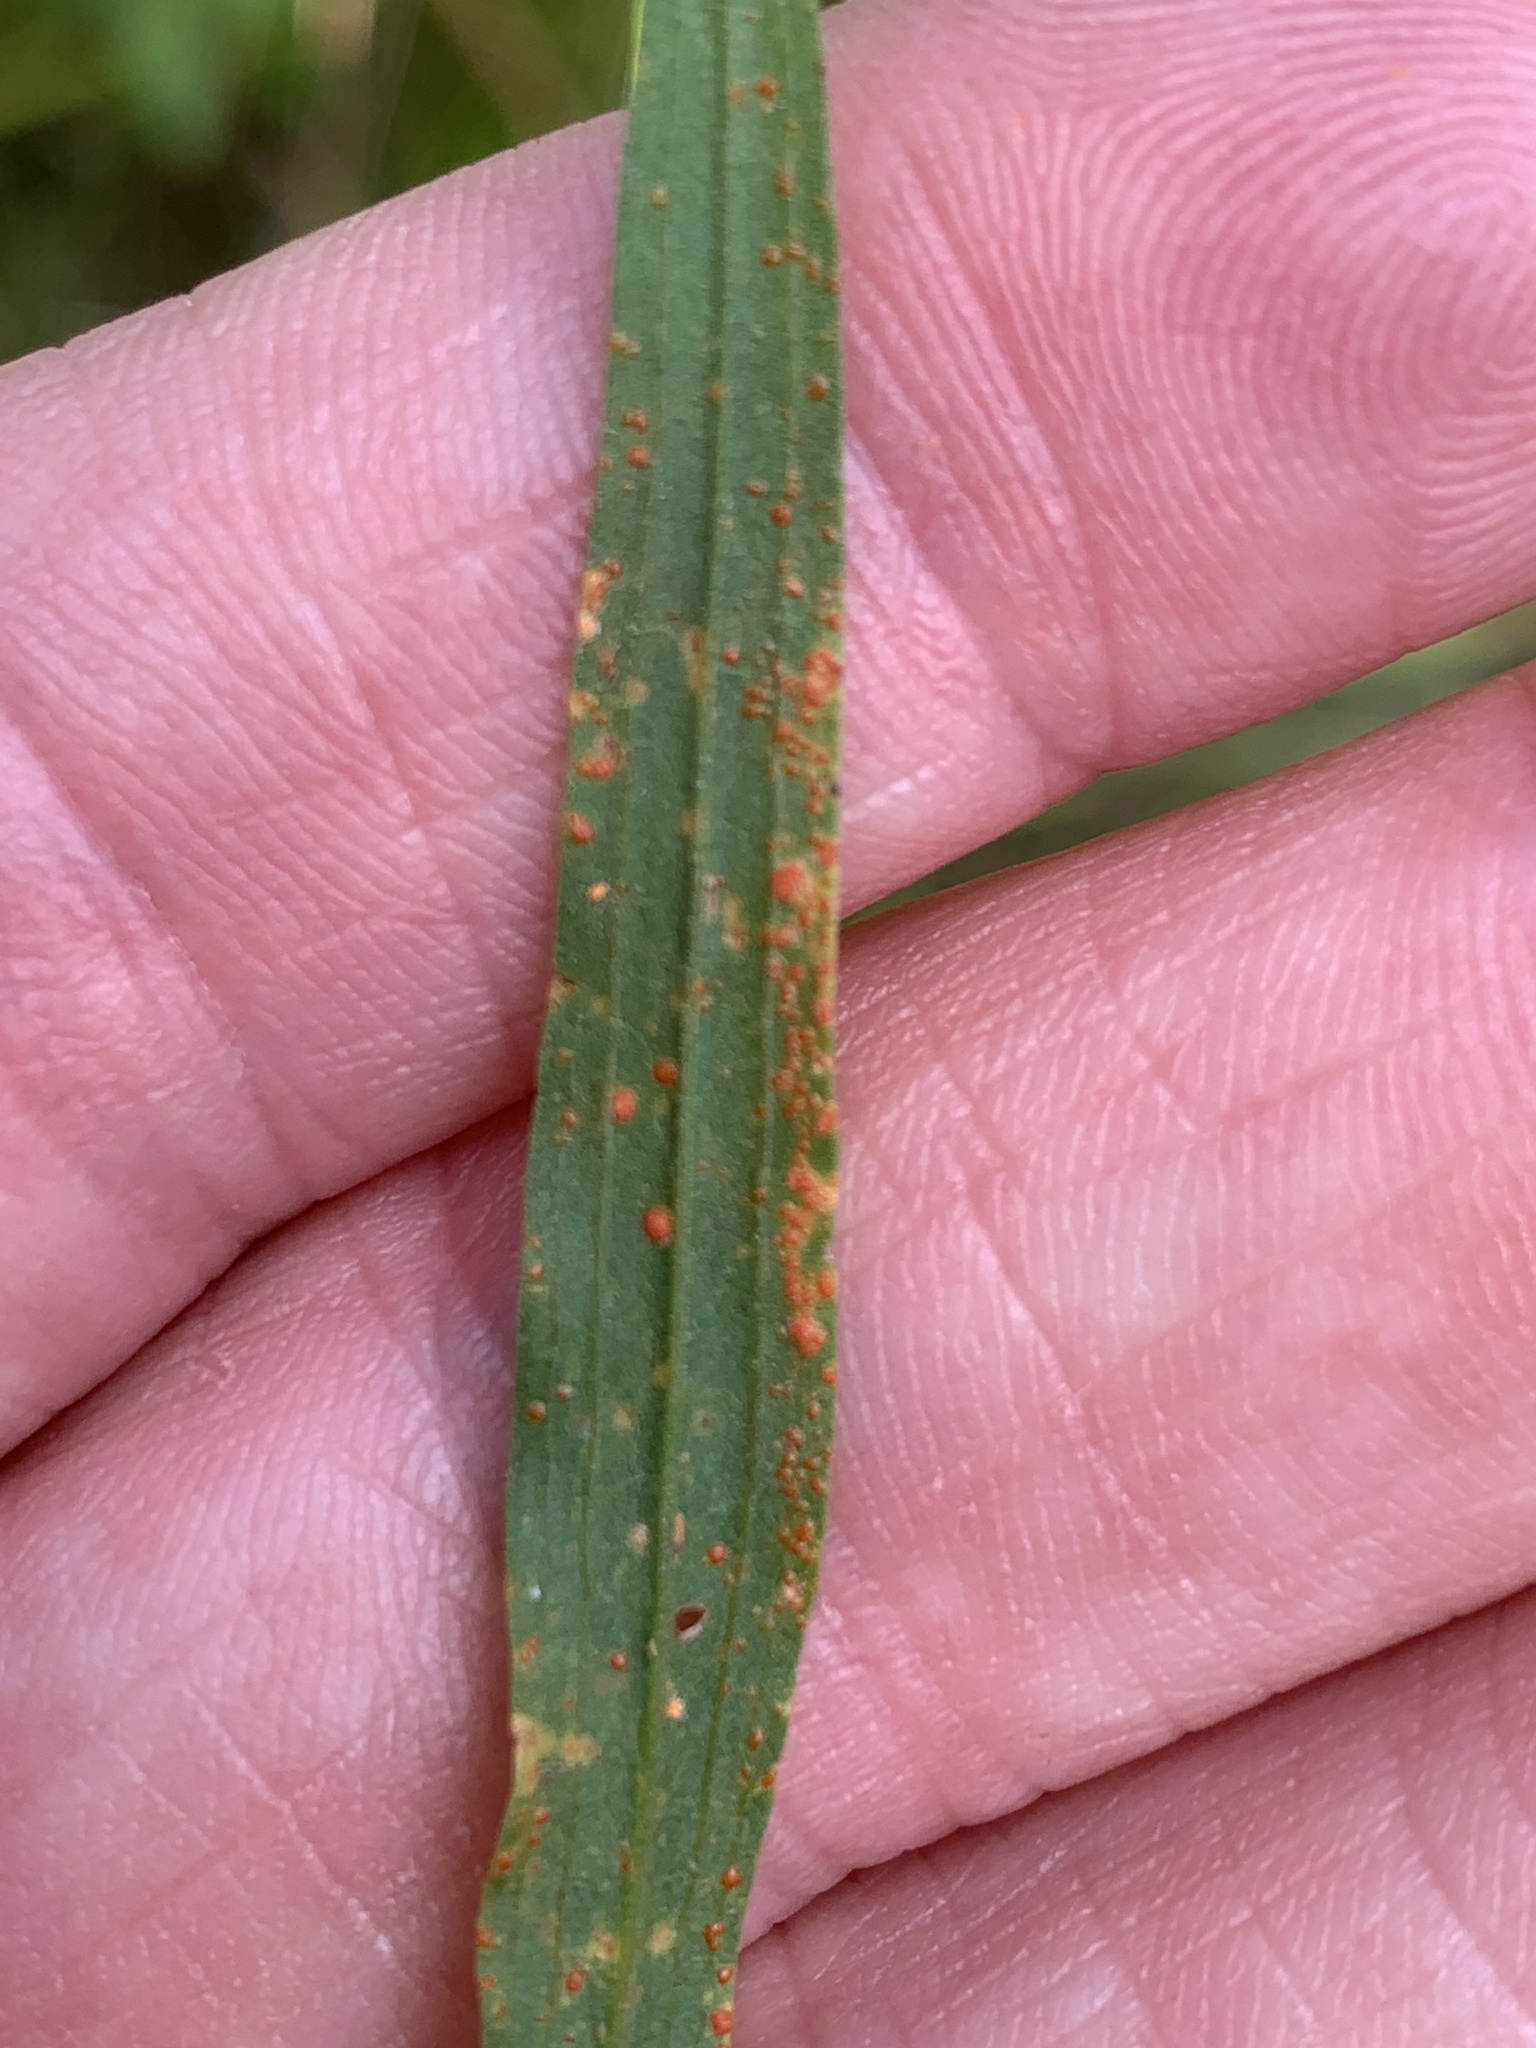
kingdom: Fungi
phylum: Basidiomycota
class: Pucciniomycetes
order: Pucciniales
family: Coleosporiaceae
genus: Coleosporium
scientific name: Coleosporium asterum
